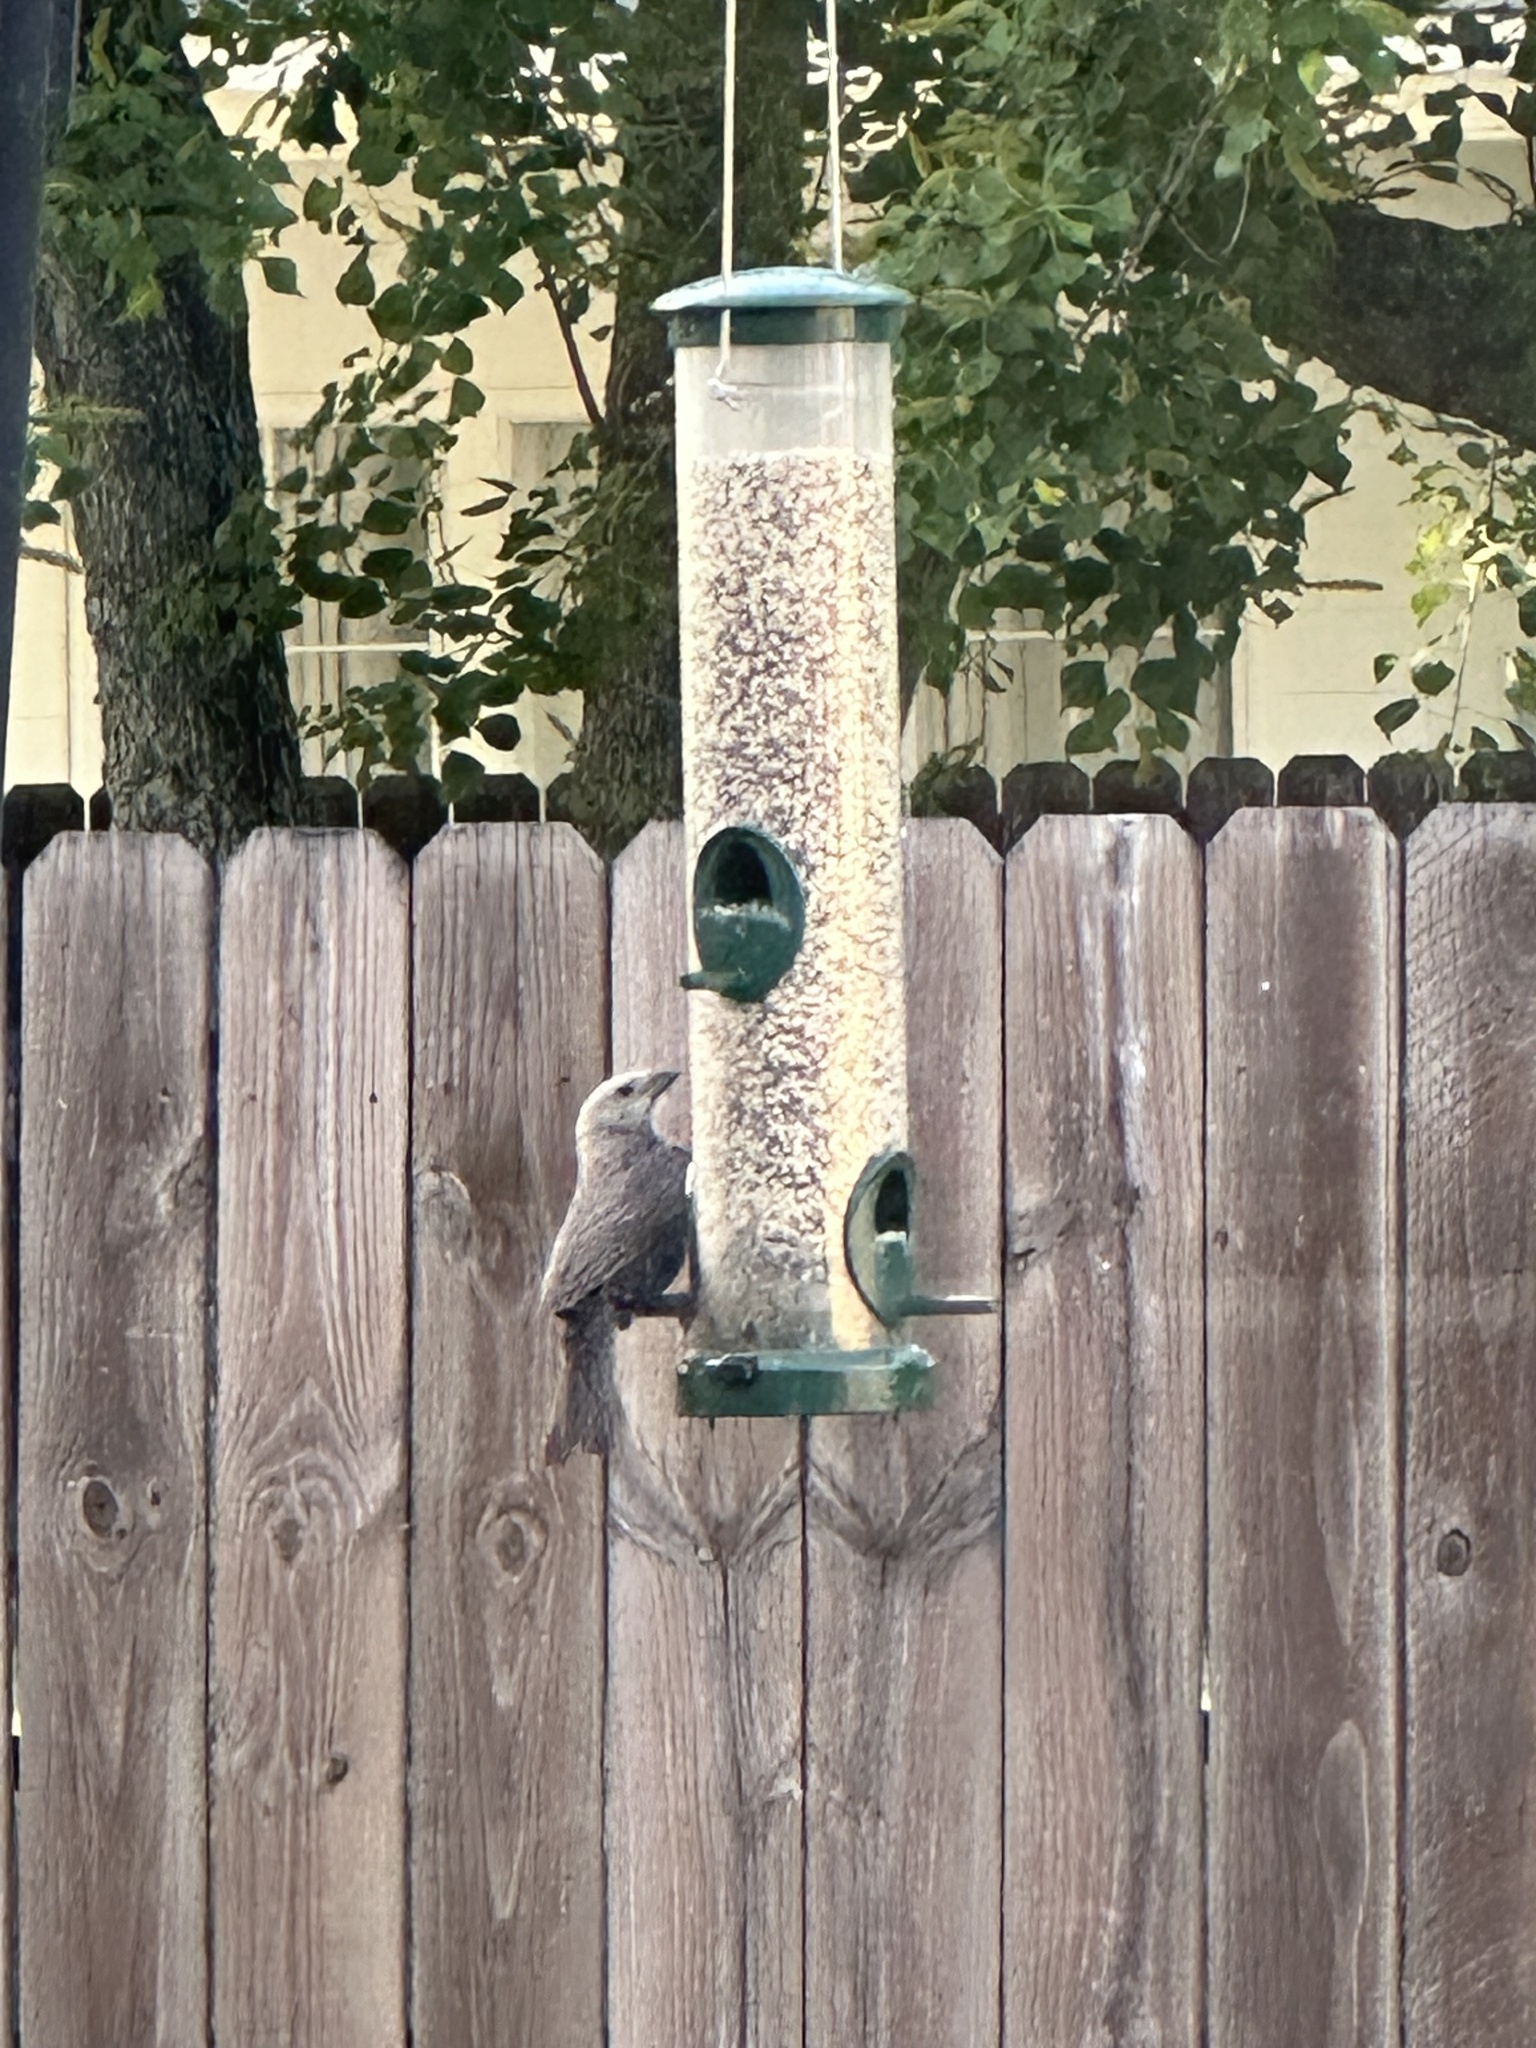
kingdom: Animalia
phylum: Chordata
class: Aves
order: Passeriformes
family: Icteridae
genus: Molothrus
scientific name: Molothrus ater
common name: Brown-headed cowbird
